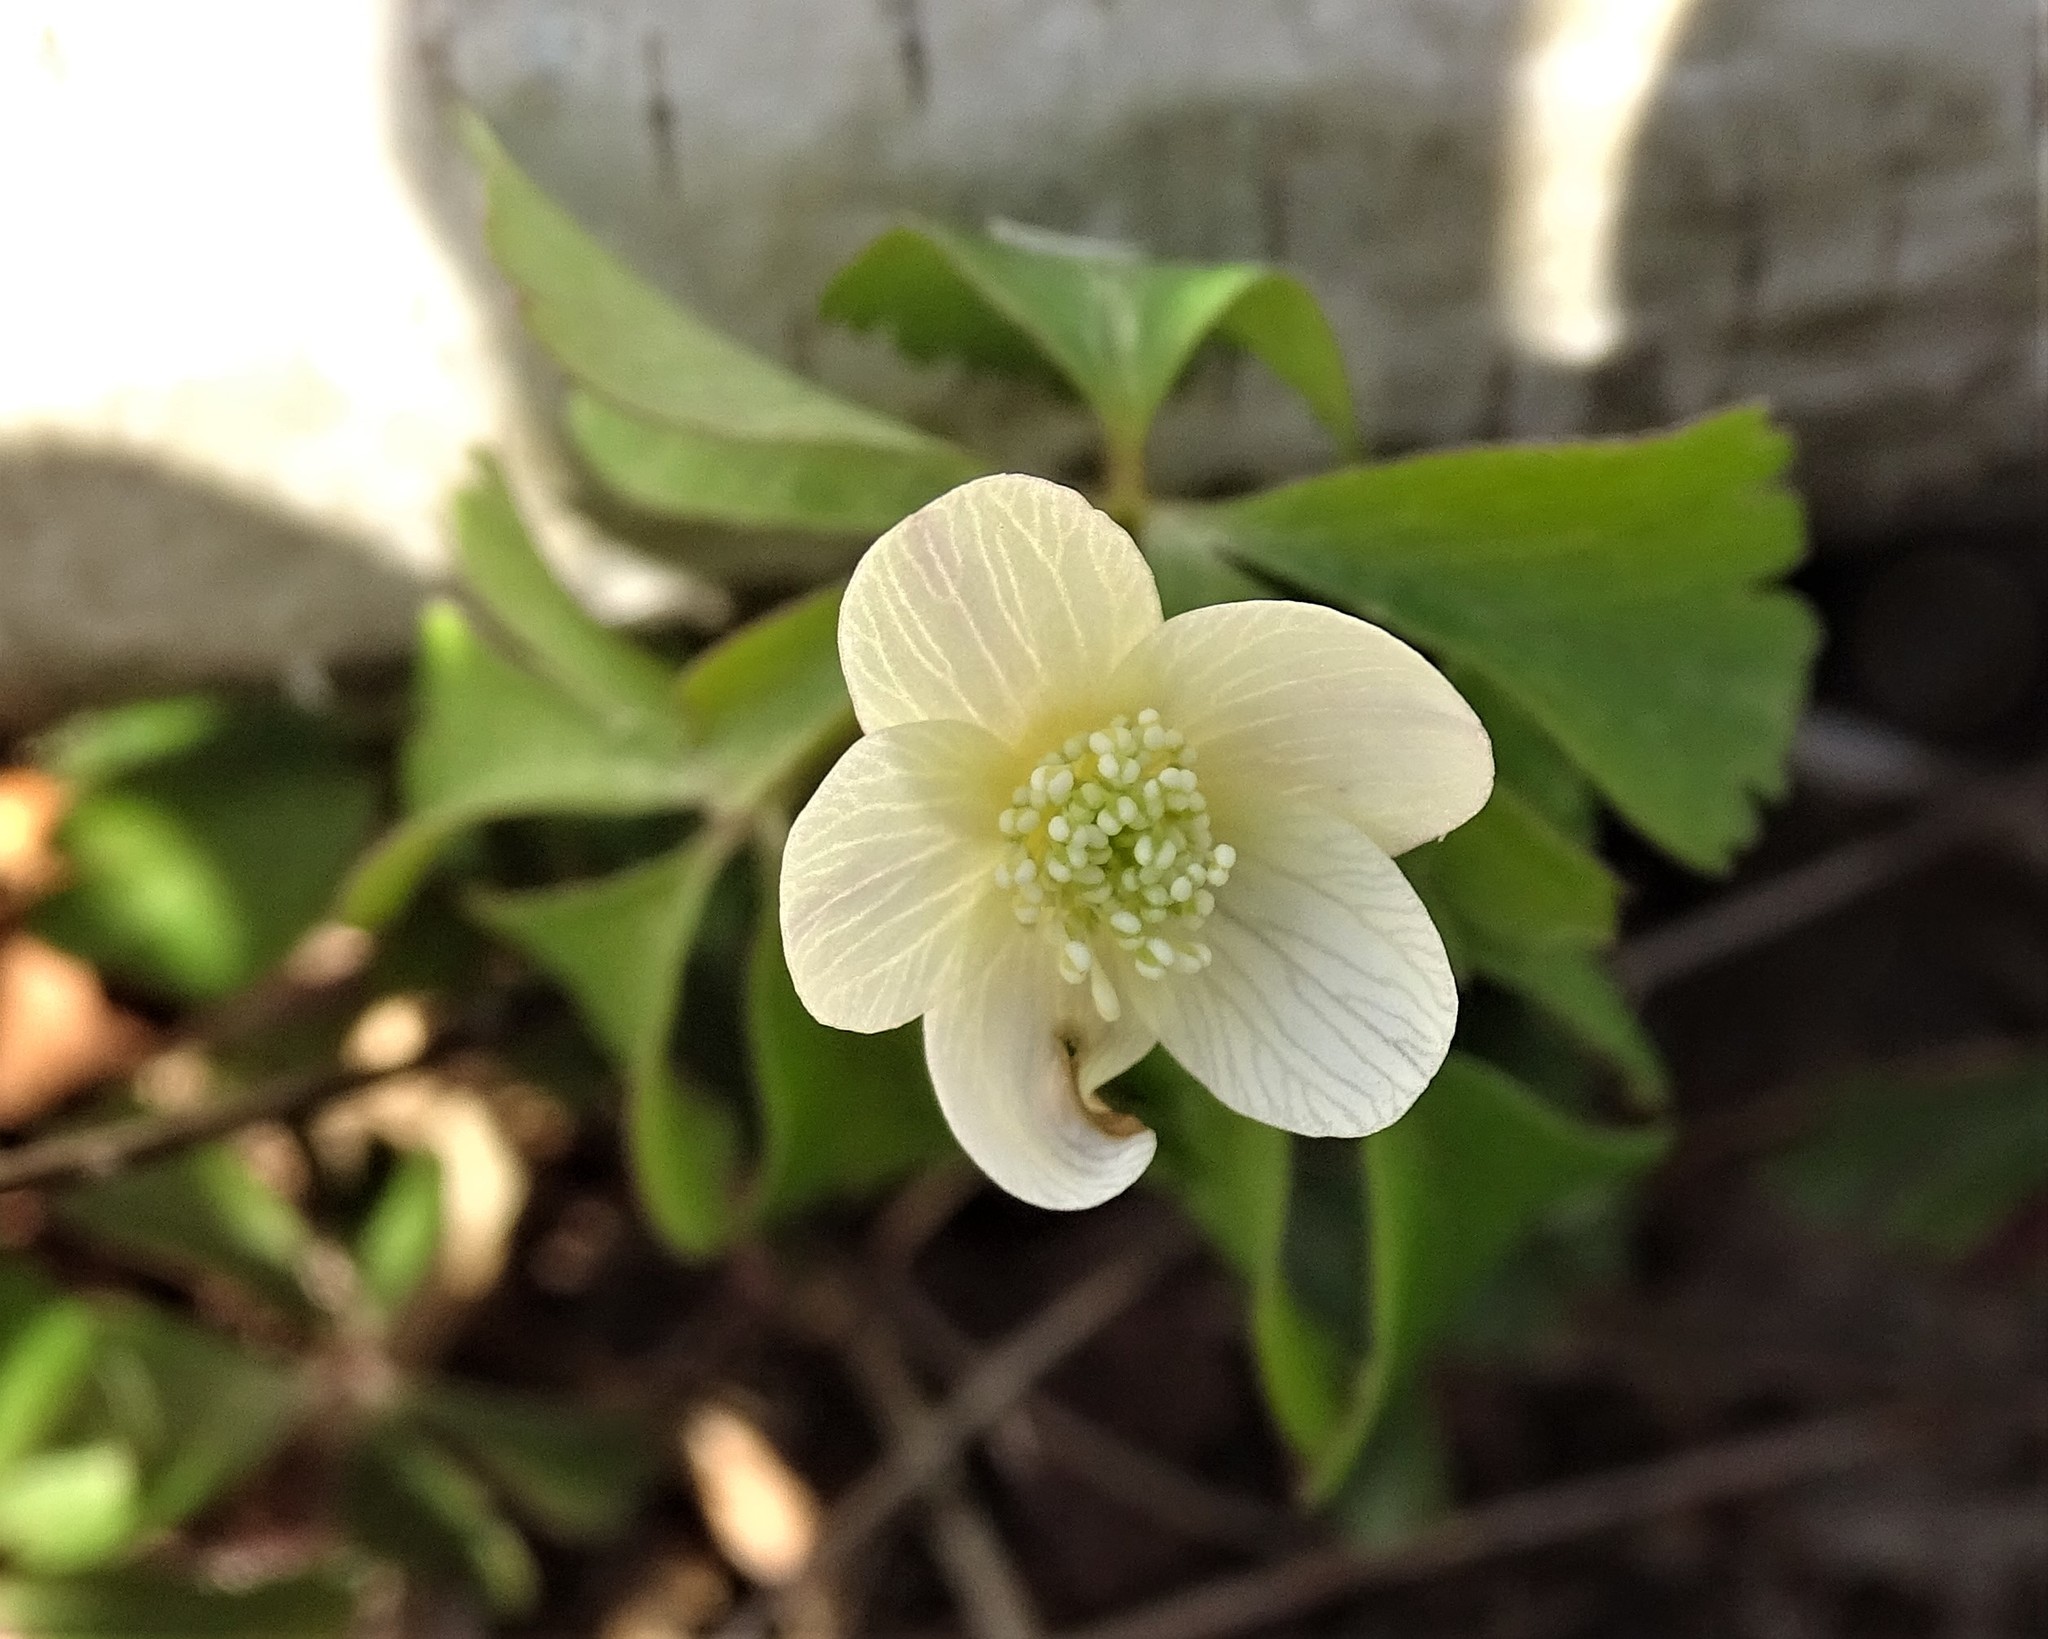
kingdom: Plantae
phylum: Tracheophyta
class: Magnoliopsida
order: Ranunculales
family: Ranunculaceae
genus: Anemone
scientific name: Anemone quinquefolia
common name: Wood anemone
